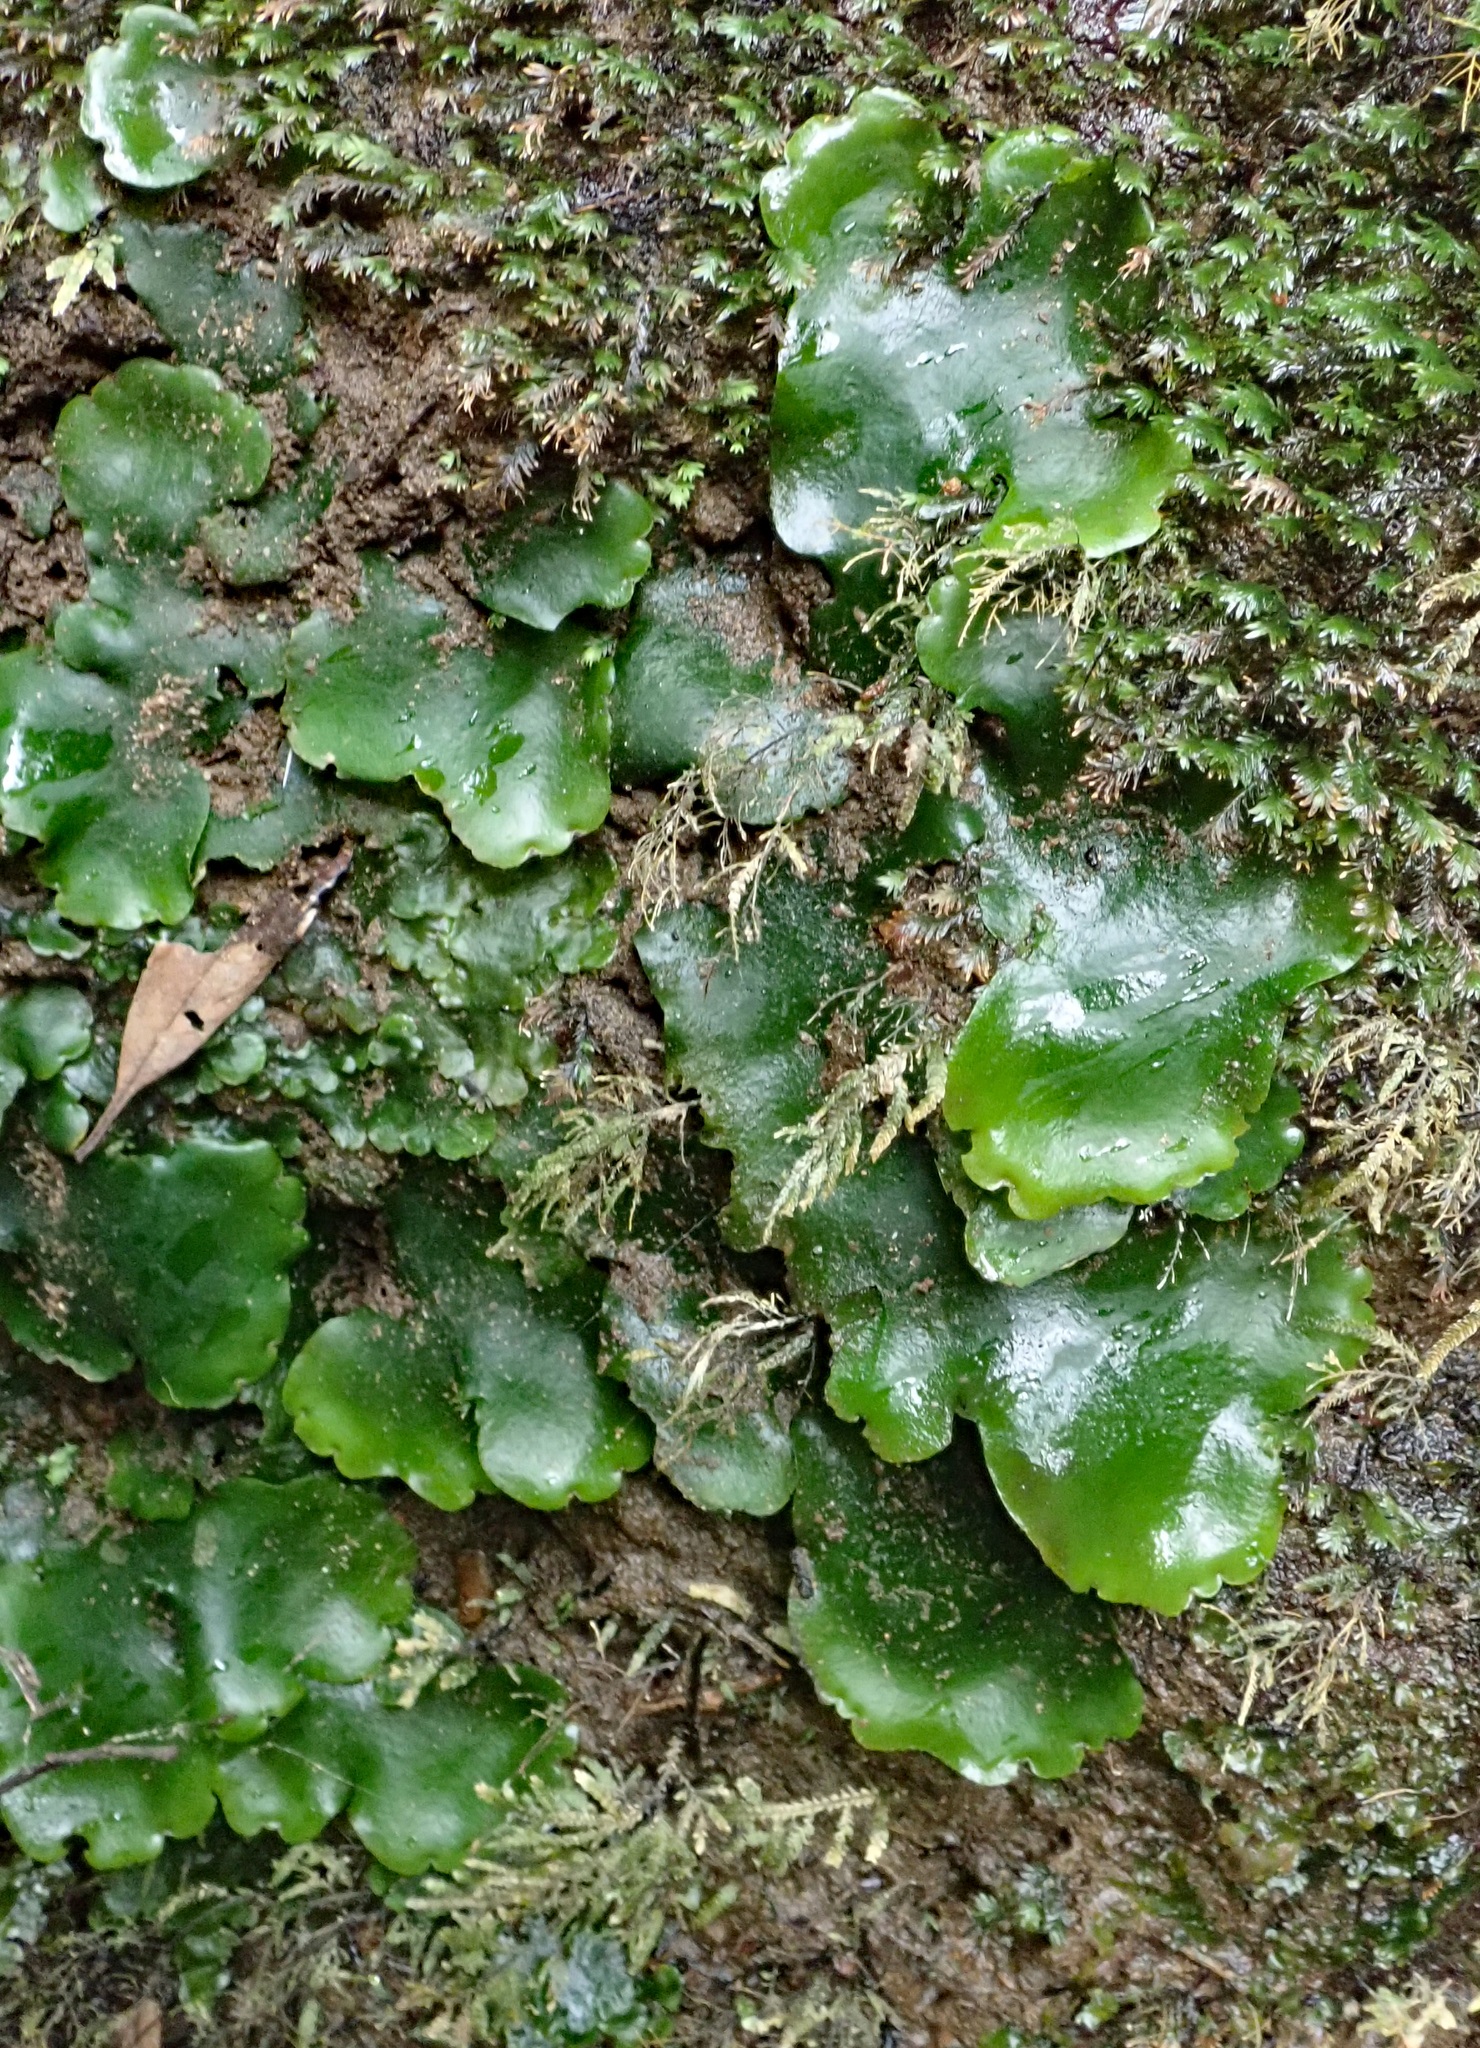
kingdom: Plantae
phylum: Marchantiophyta
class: Marchantiopsida
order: Marchantiales
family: Monocleaceae
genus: Monoclea
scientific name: Monoclea forsteri
